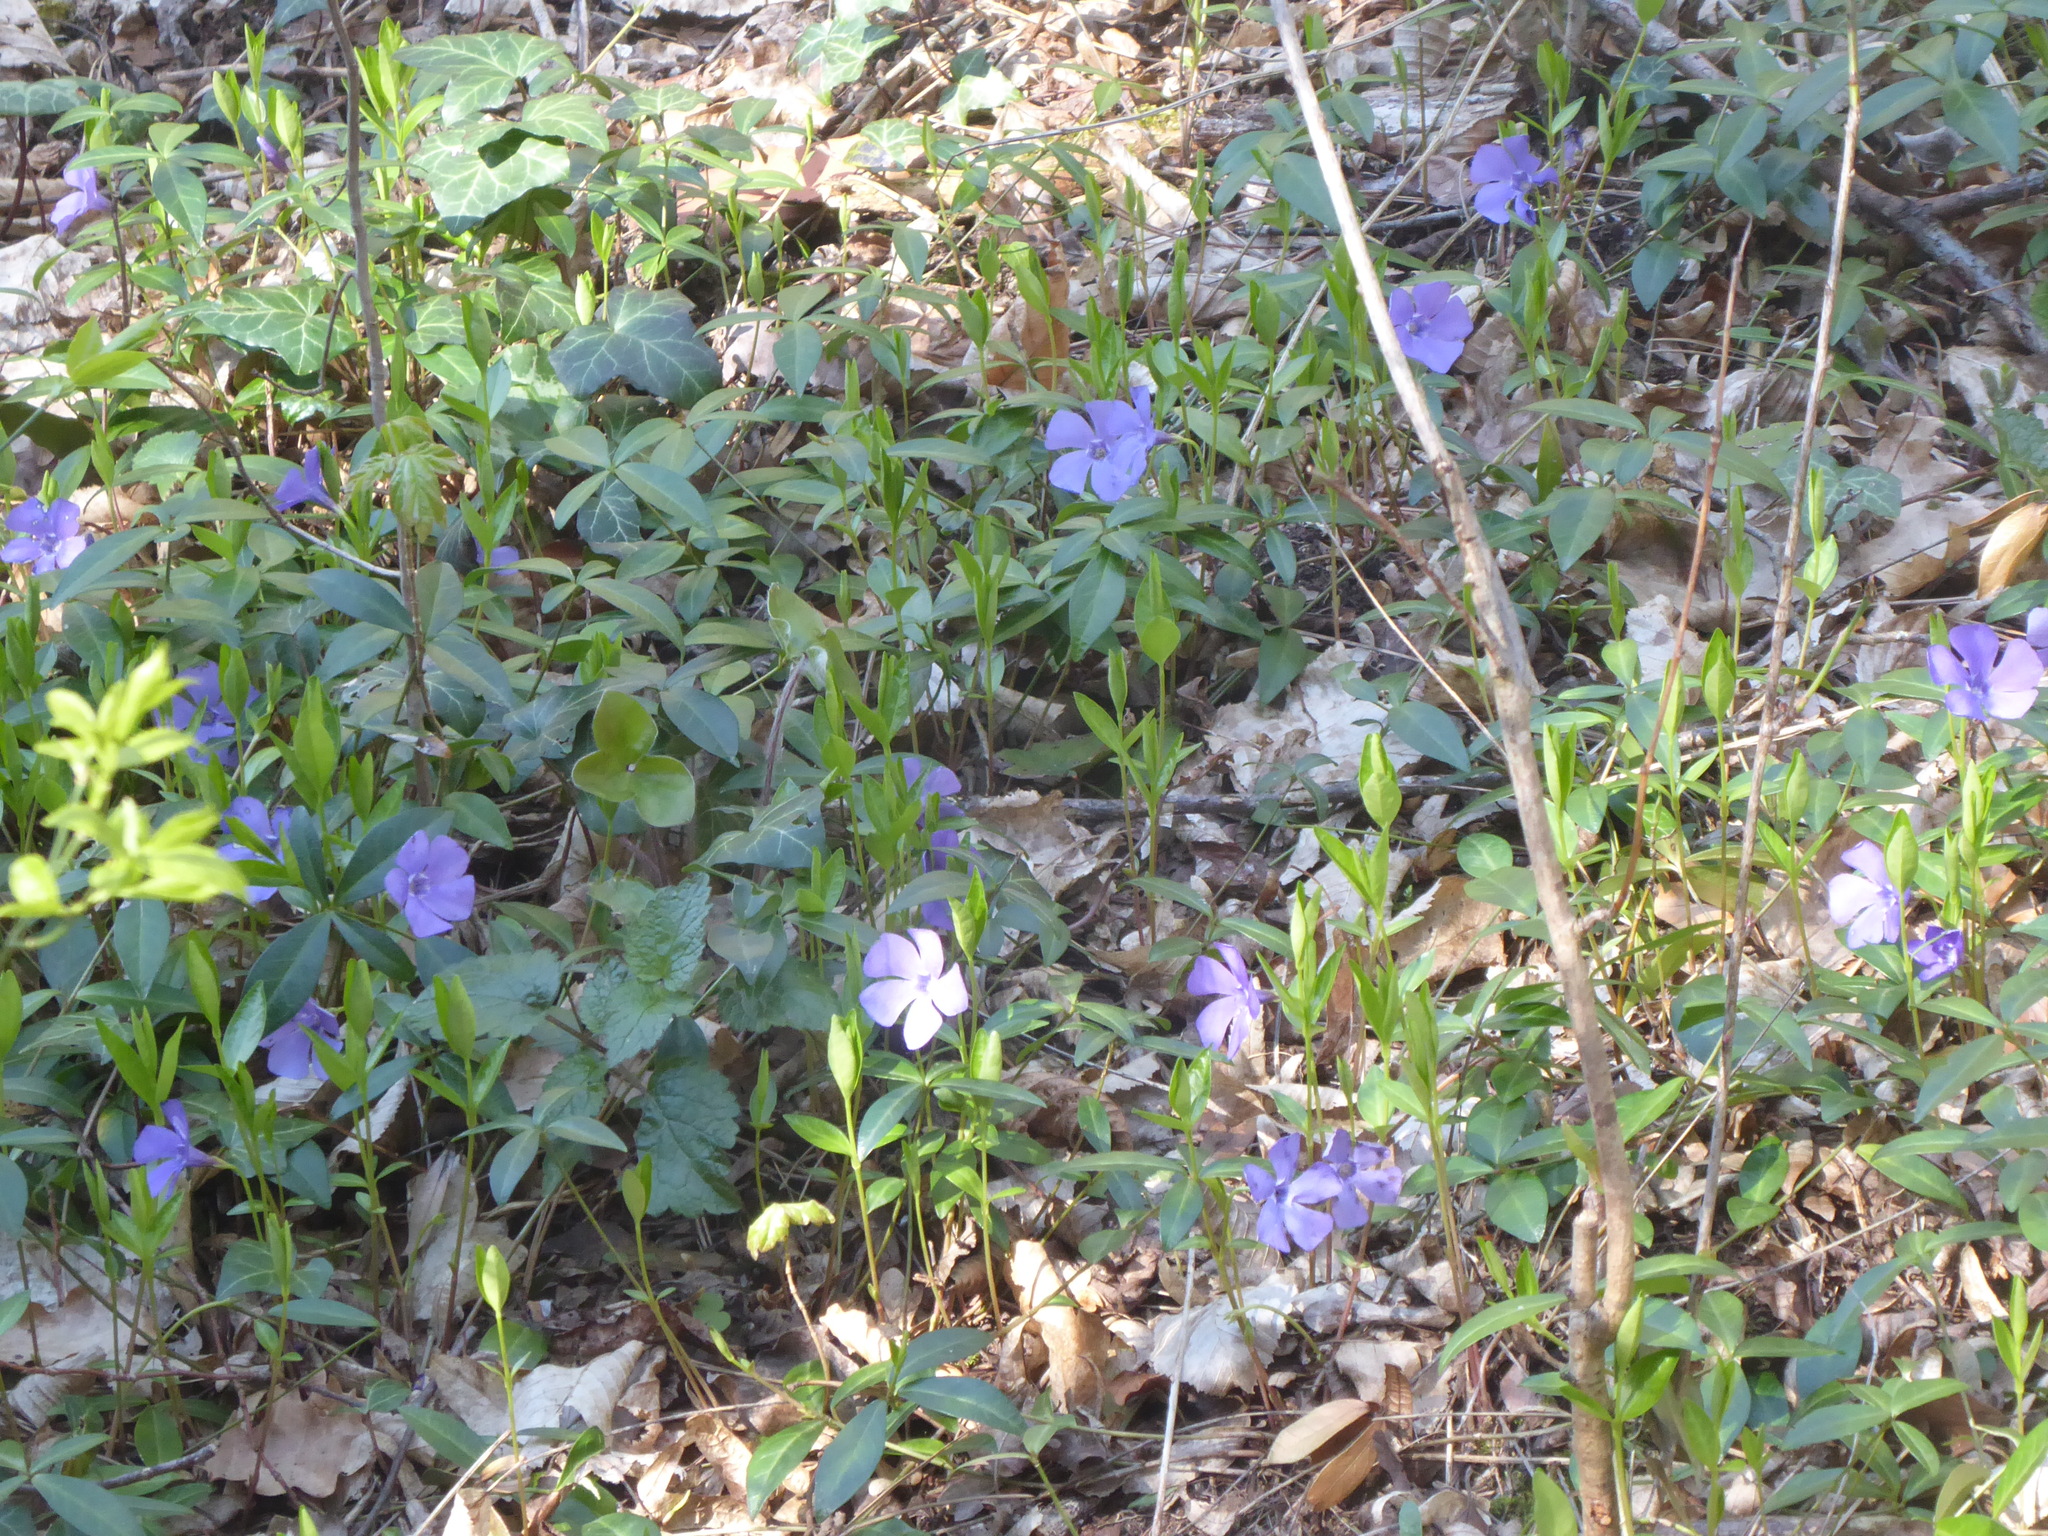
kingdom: Plantae
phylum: Tracheophyta
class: Magnoliopsida
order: Gentianales
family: Apocynaceae
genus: Vinca
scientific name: Vinca minor
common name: Lesser periwinkle
